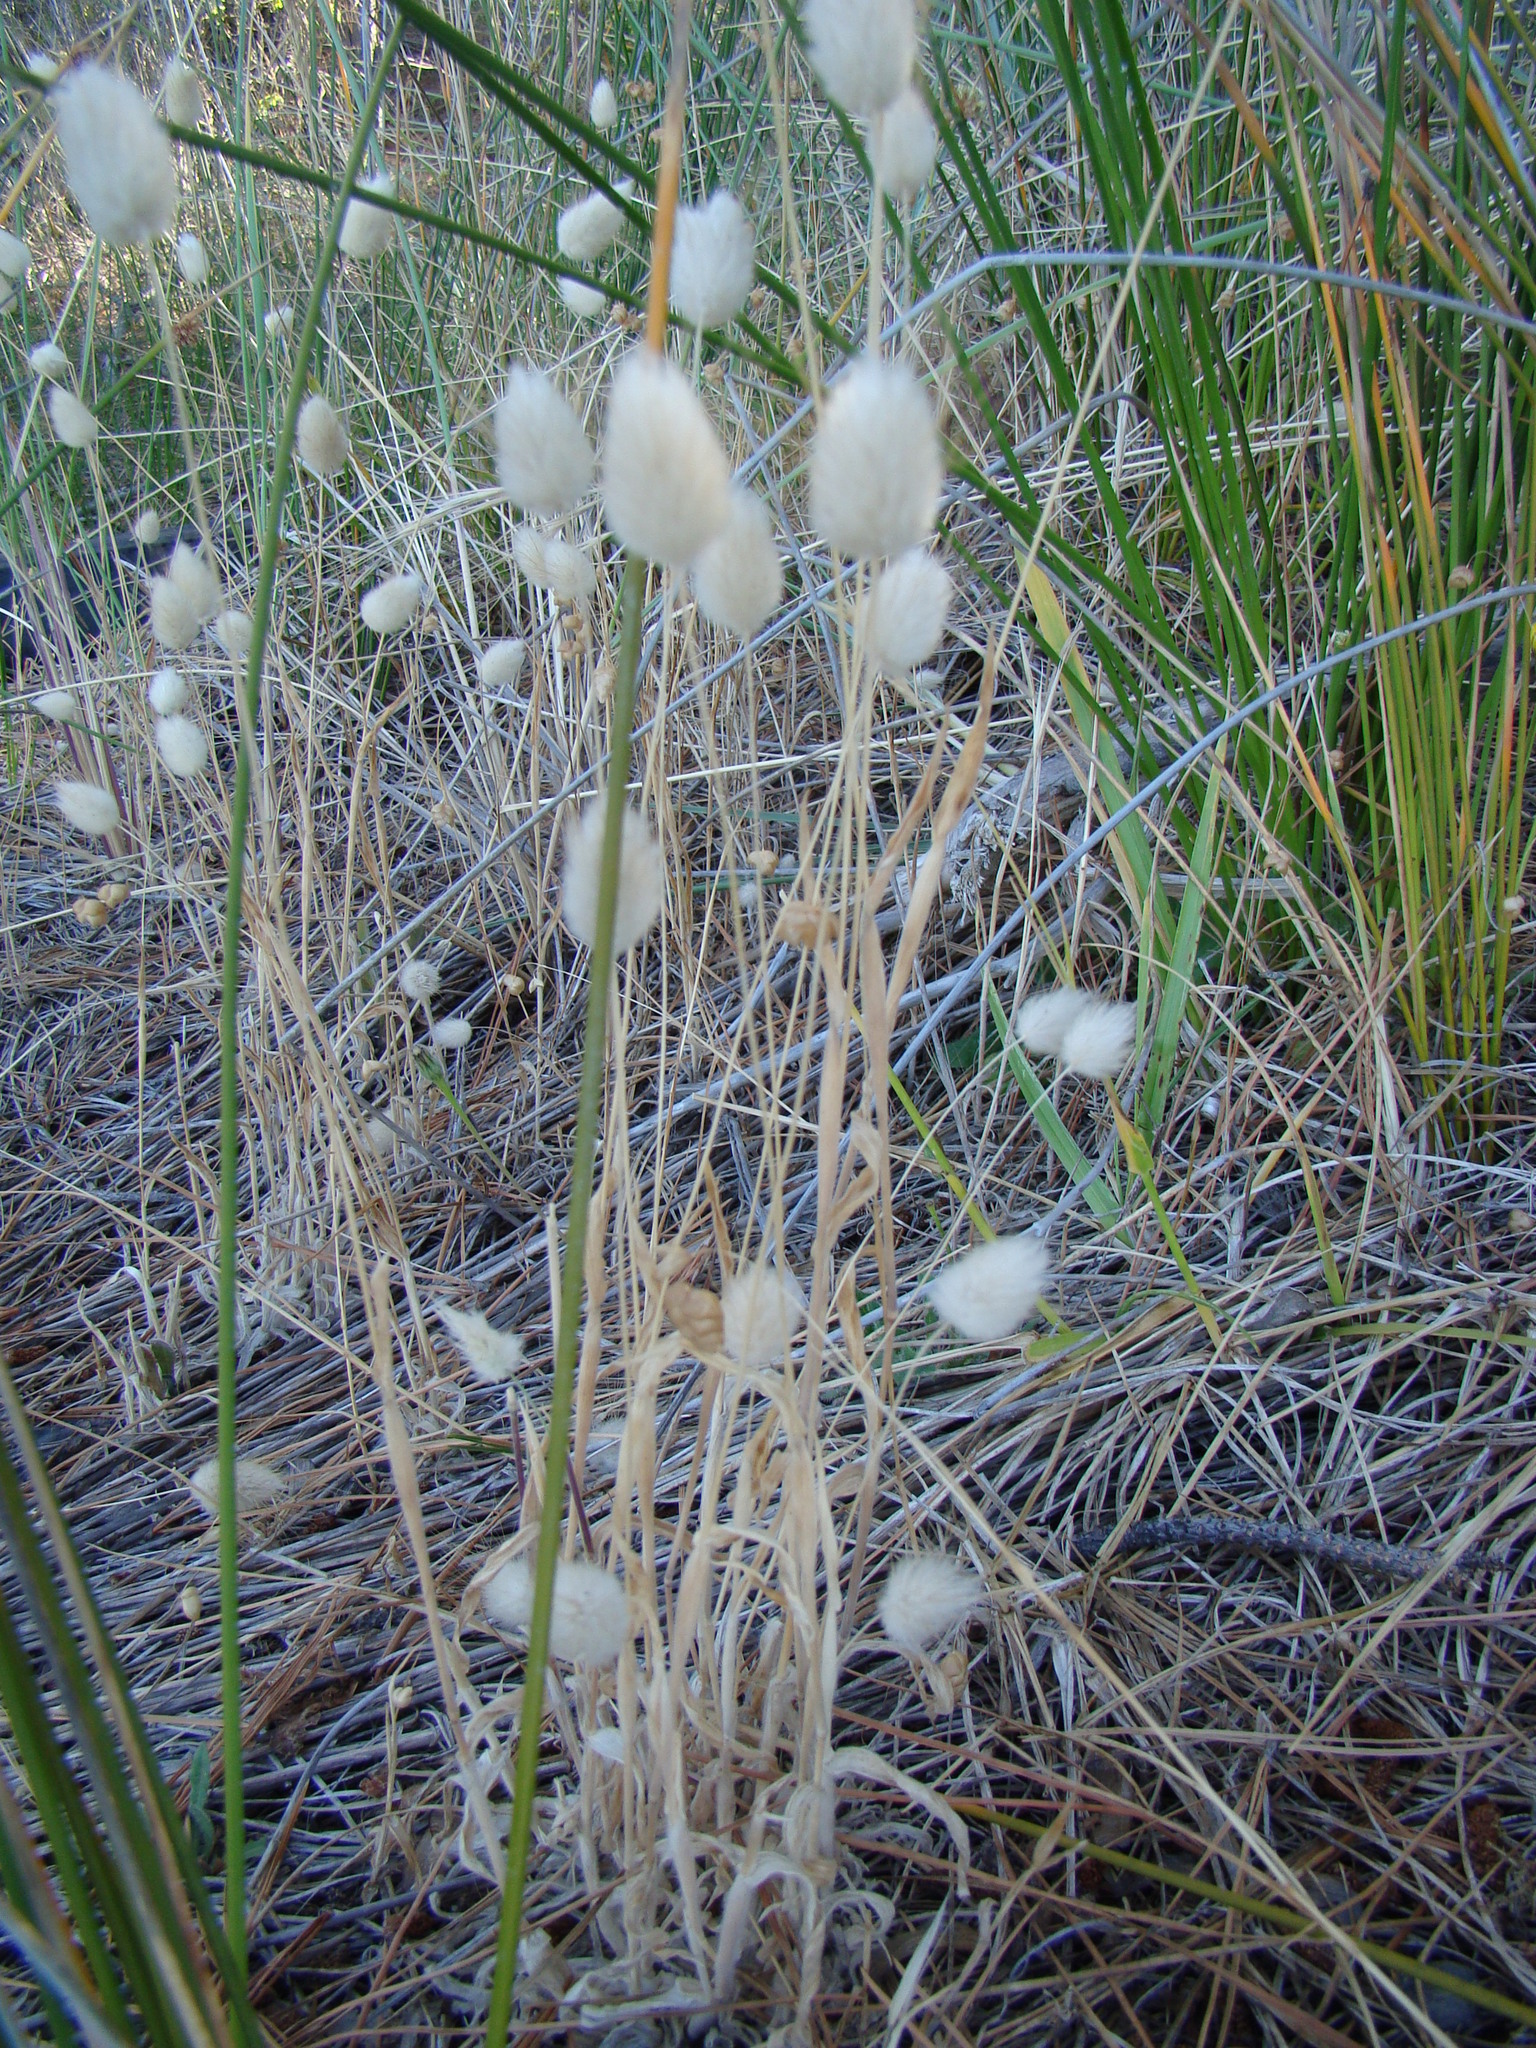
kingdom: Plantae
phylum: Tracheophyta
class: Liliopsida
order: Poales
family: Poaceae
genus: Lagurus
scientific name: Lagurus ovatus
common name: Hare's-tail
